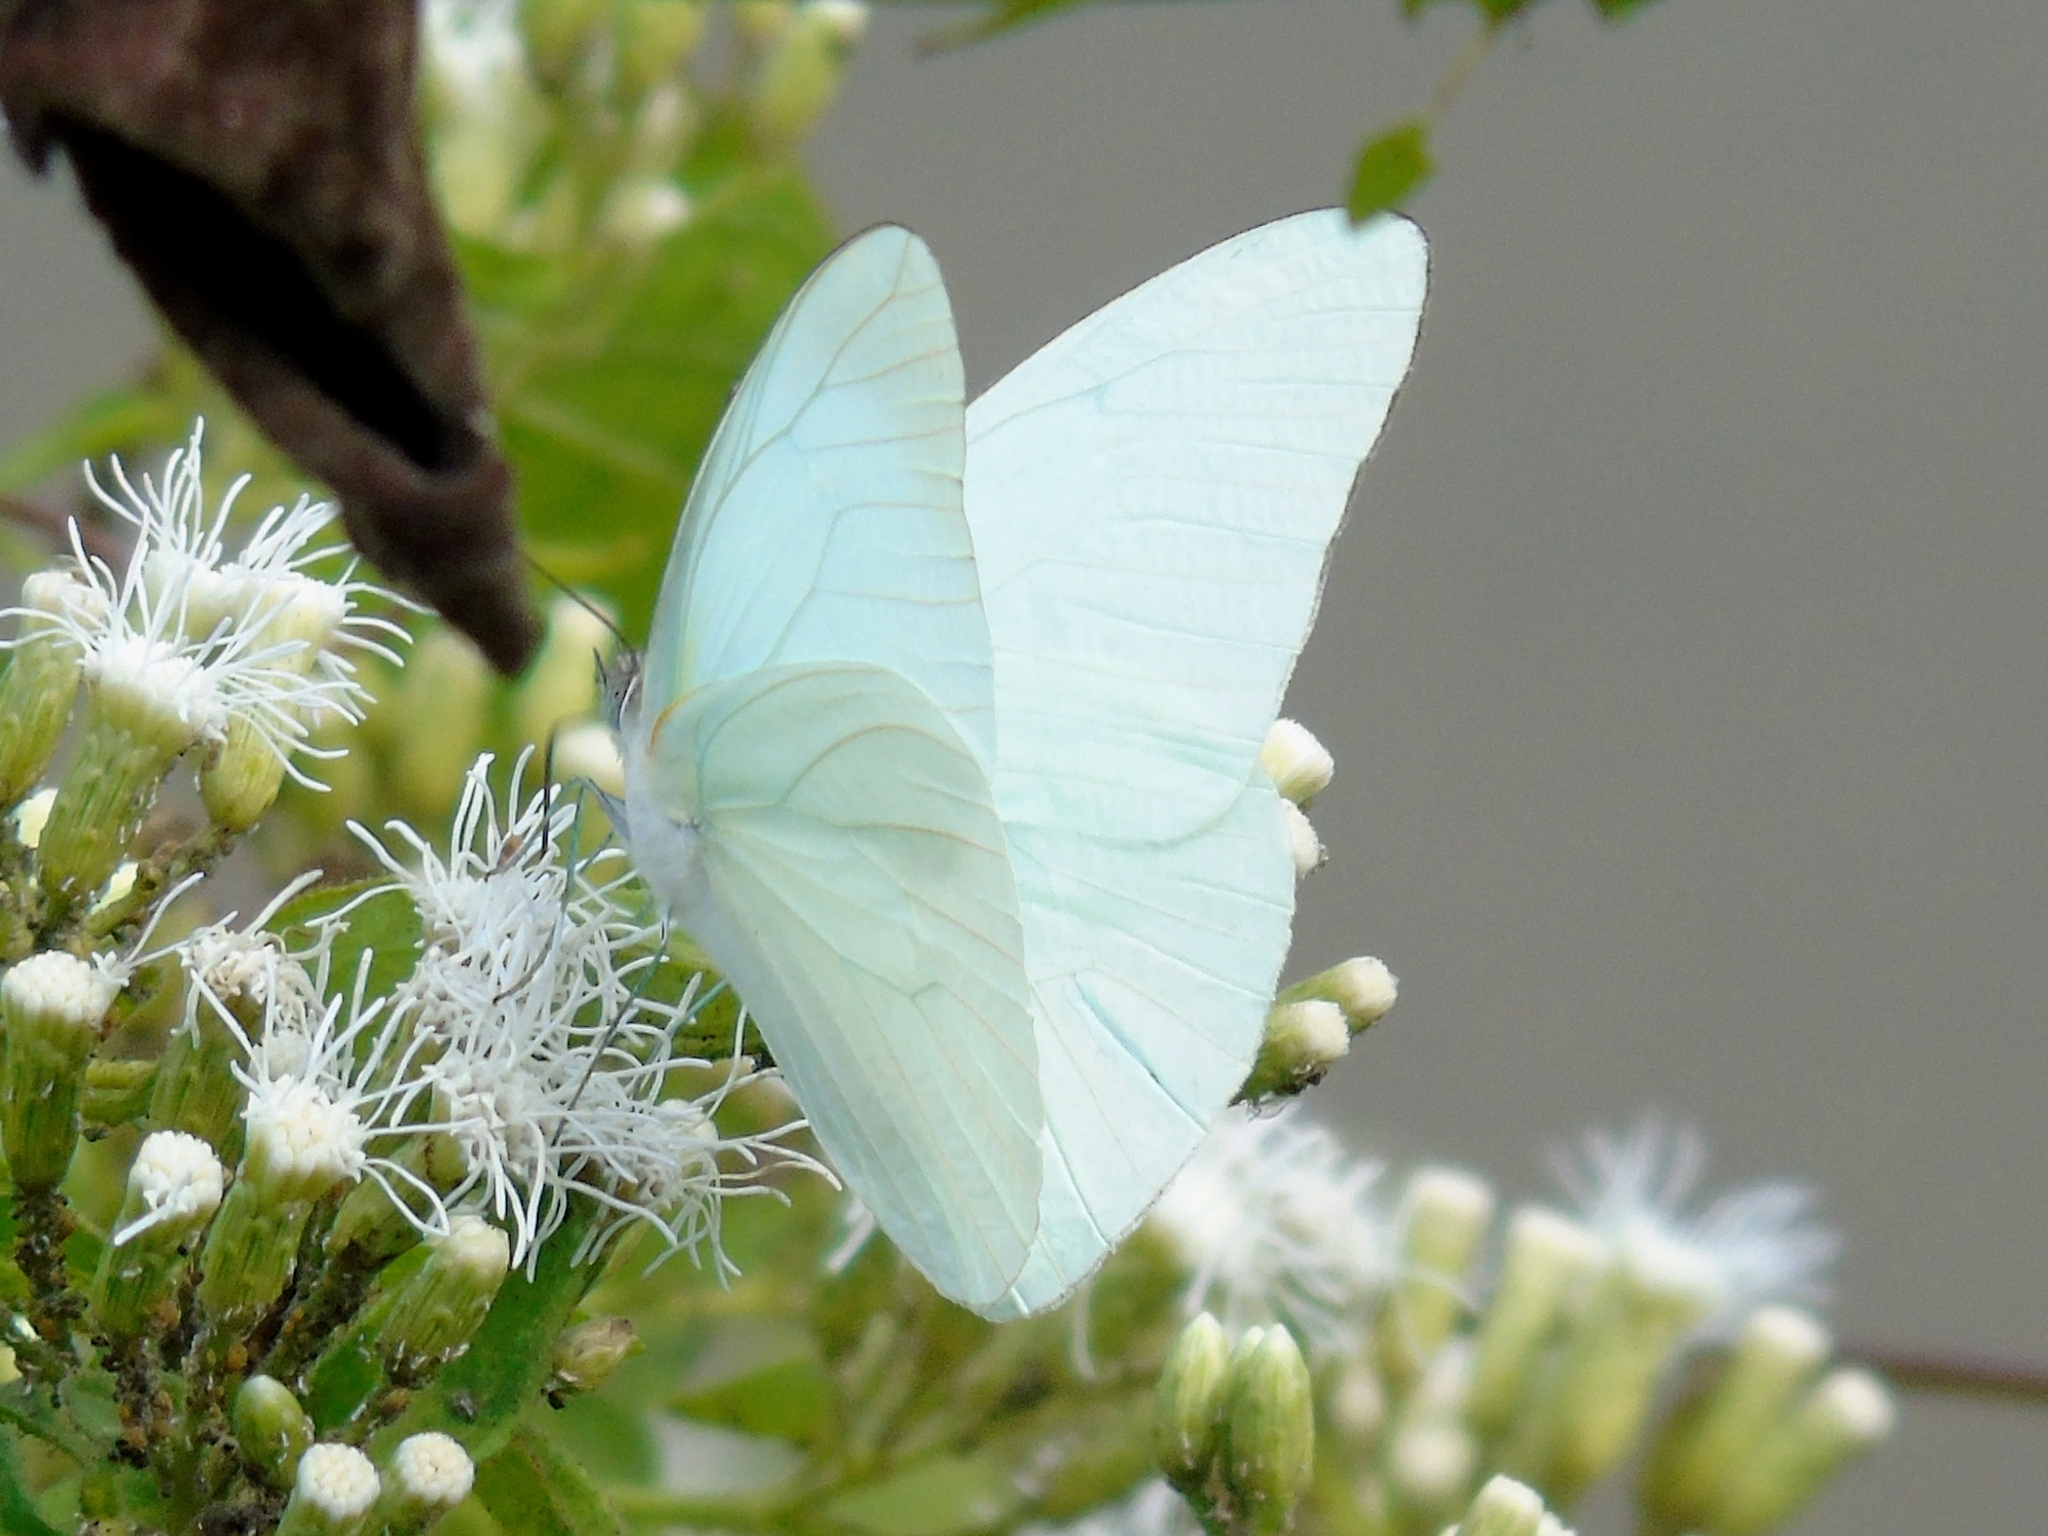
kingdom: Animalia
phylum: Arthropoda
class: Insecta
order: Lepidoptera
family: Pieridae
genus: Glutophrissa
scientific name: Glutophrissa drusilla
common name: Florida white
